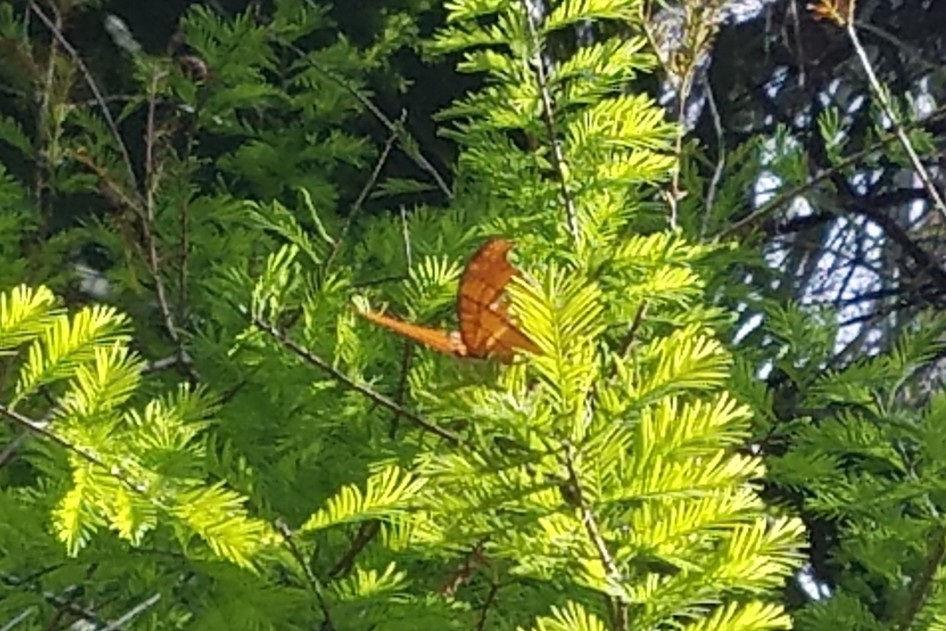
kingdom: Animalia
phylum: Arthropoda
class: Insecta
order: Lepidoptera
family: Nymphalidae
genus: Marpesia
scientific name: Marpesia petreus
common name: Red dagger wing
